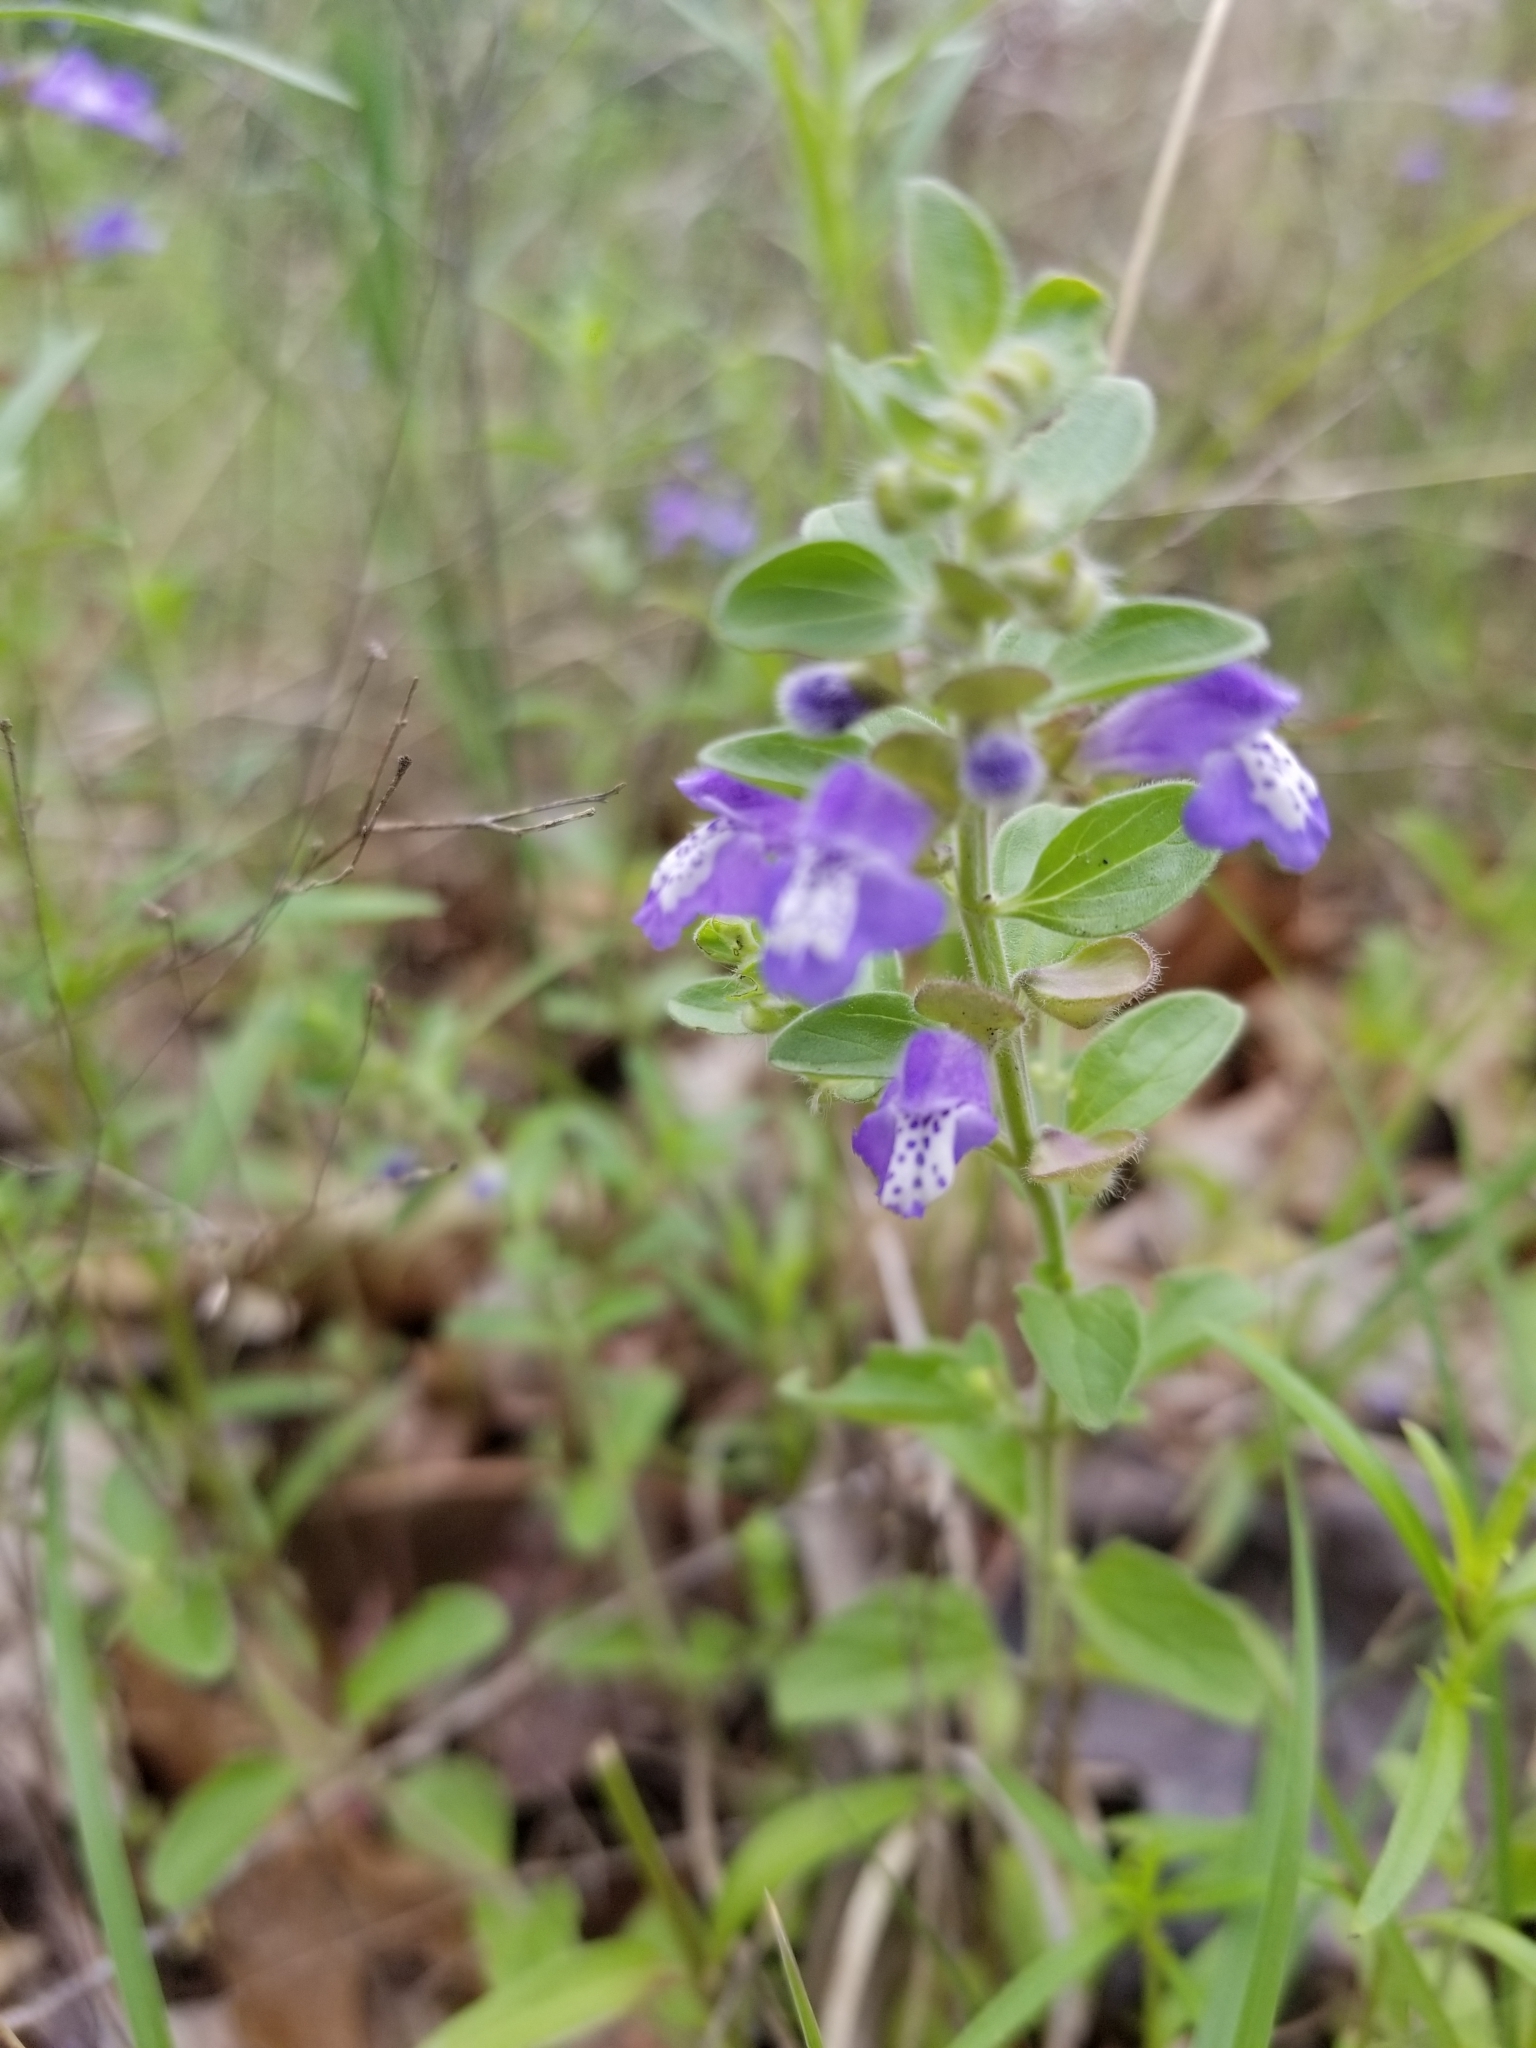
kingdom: Plantae
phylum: Tracheophyta
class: Magnoliopsida
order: Lamiales
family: Lamiaceae
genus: Scutellaria
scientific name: Scutellaria drummondii
